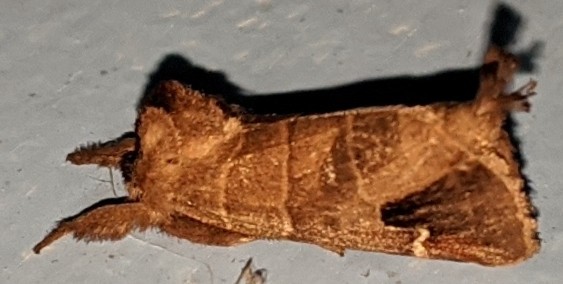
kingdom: Animalia
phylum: Arthropoda
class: Insecta
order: Lepidoptera
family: Notodontidae
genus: Clostera
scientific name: Clostera albosigma
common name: Sigmoid prominent
